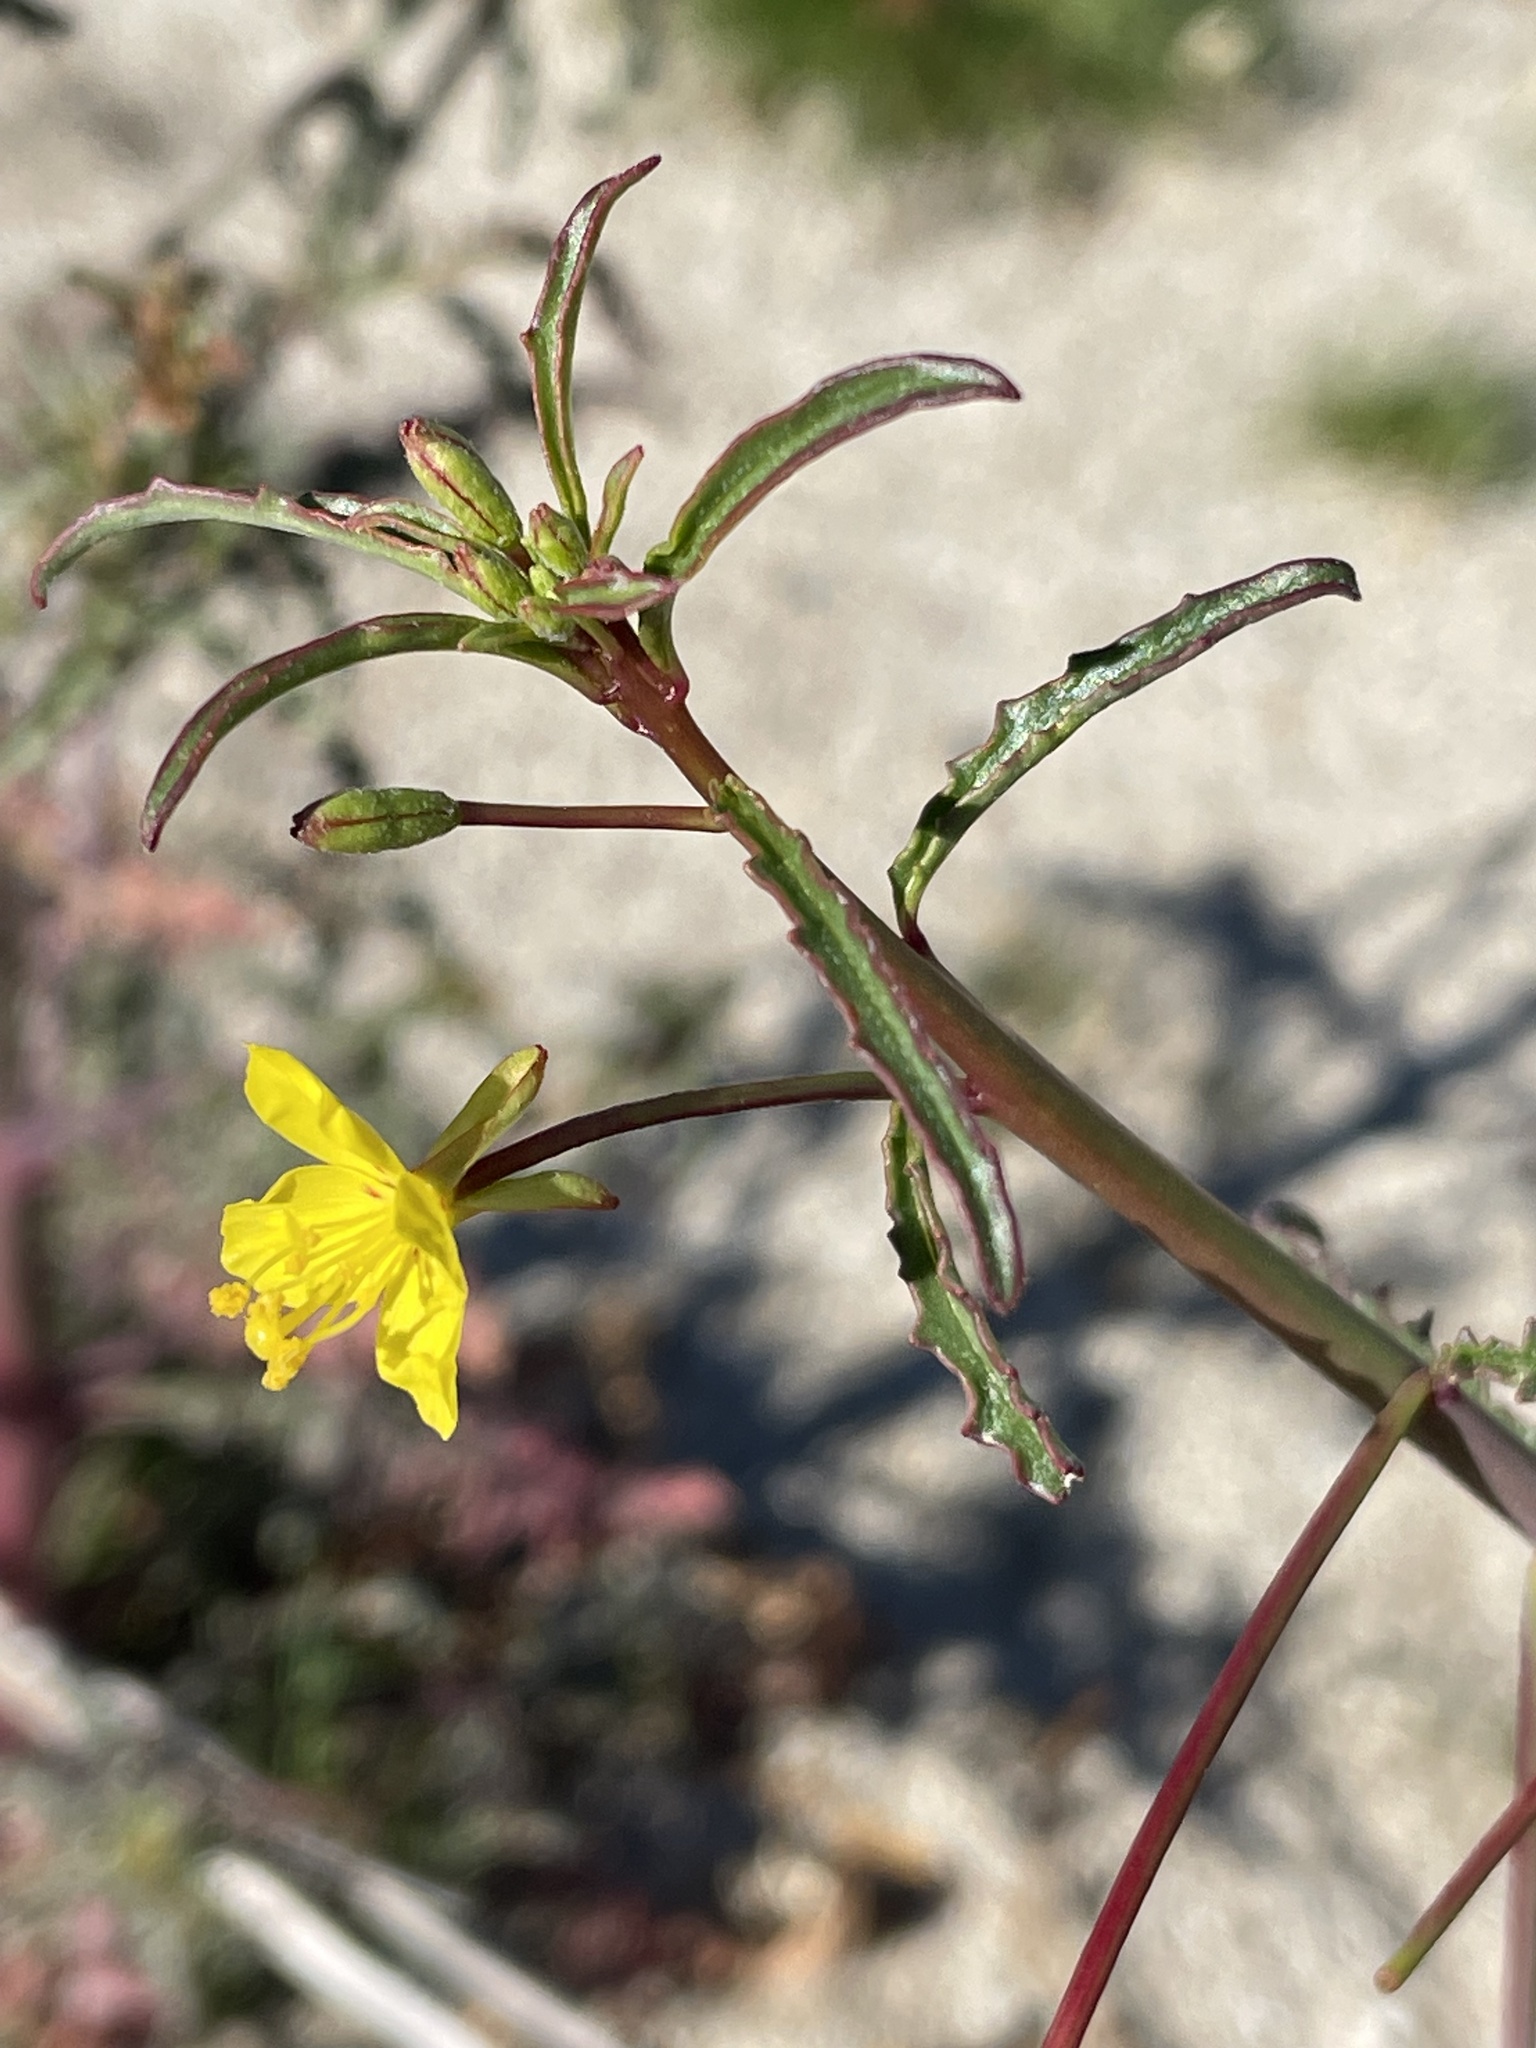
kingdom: Plantae
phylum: Tracheophyta
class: Magnoliopsida
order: Myrtales
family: Onagraceae
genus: Eulobus
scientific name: Eulobus californicus
